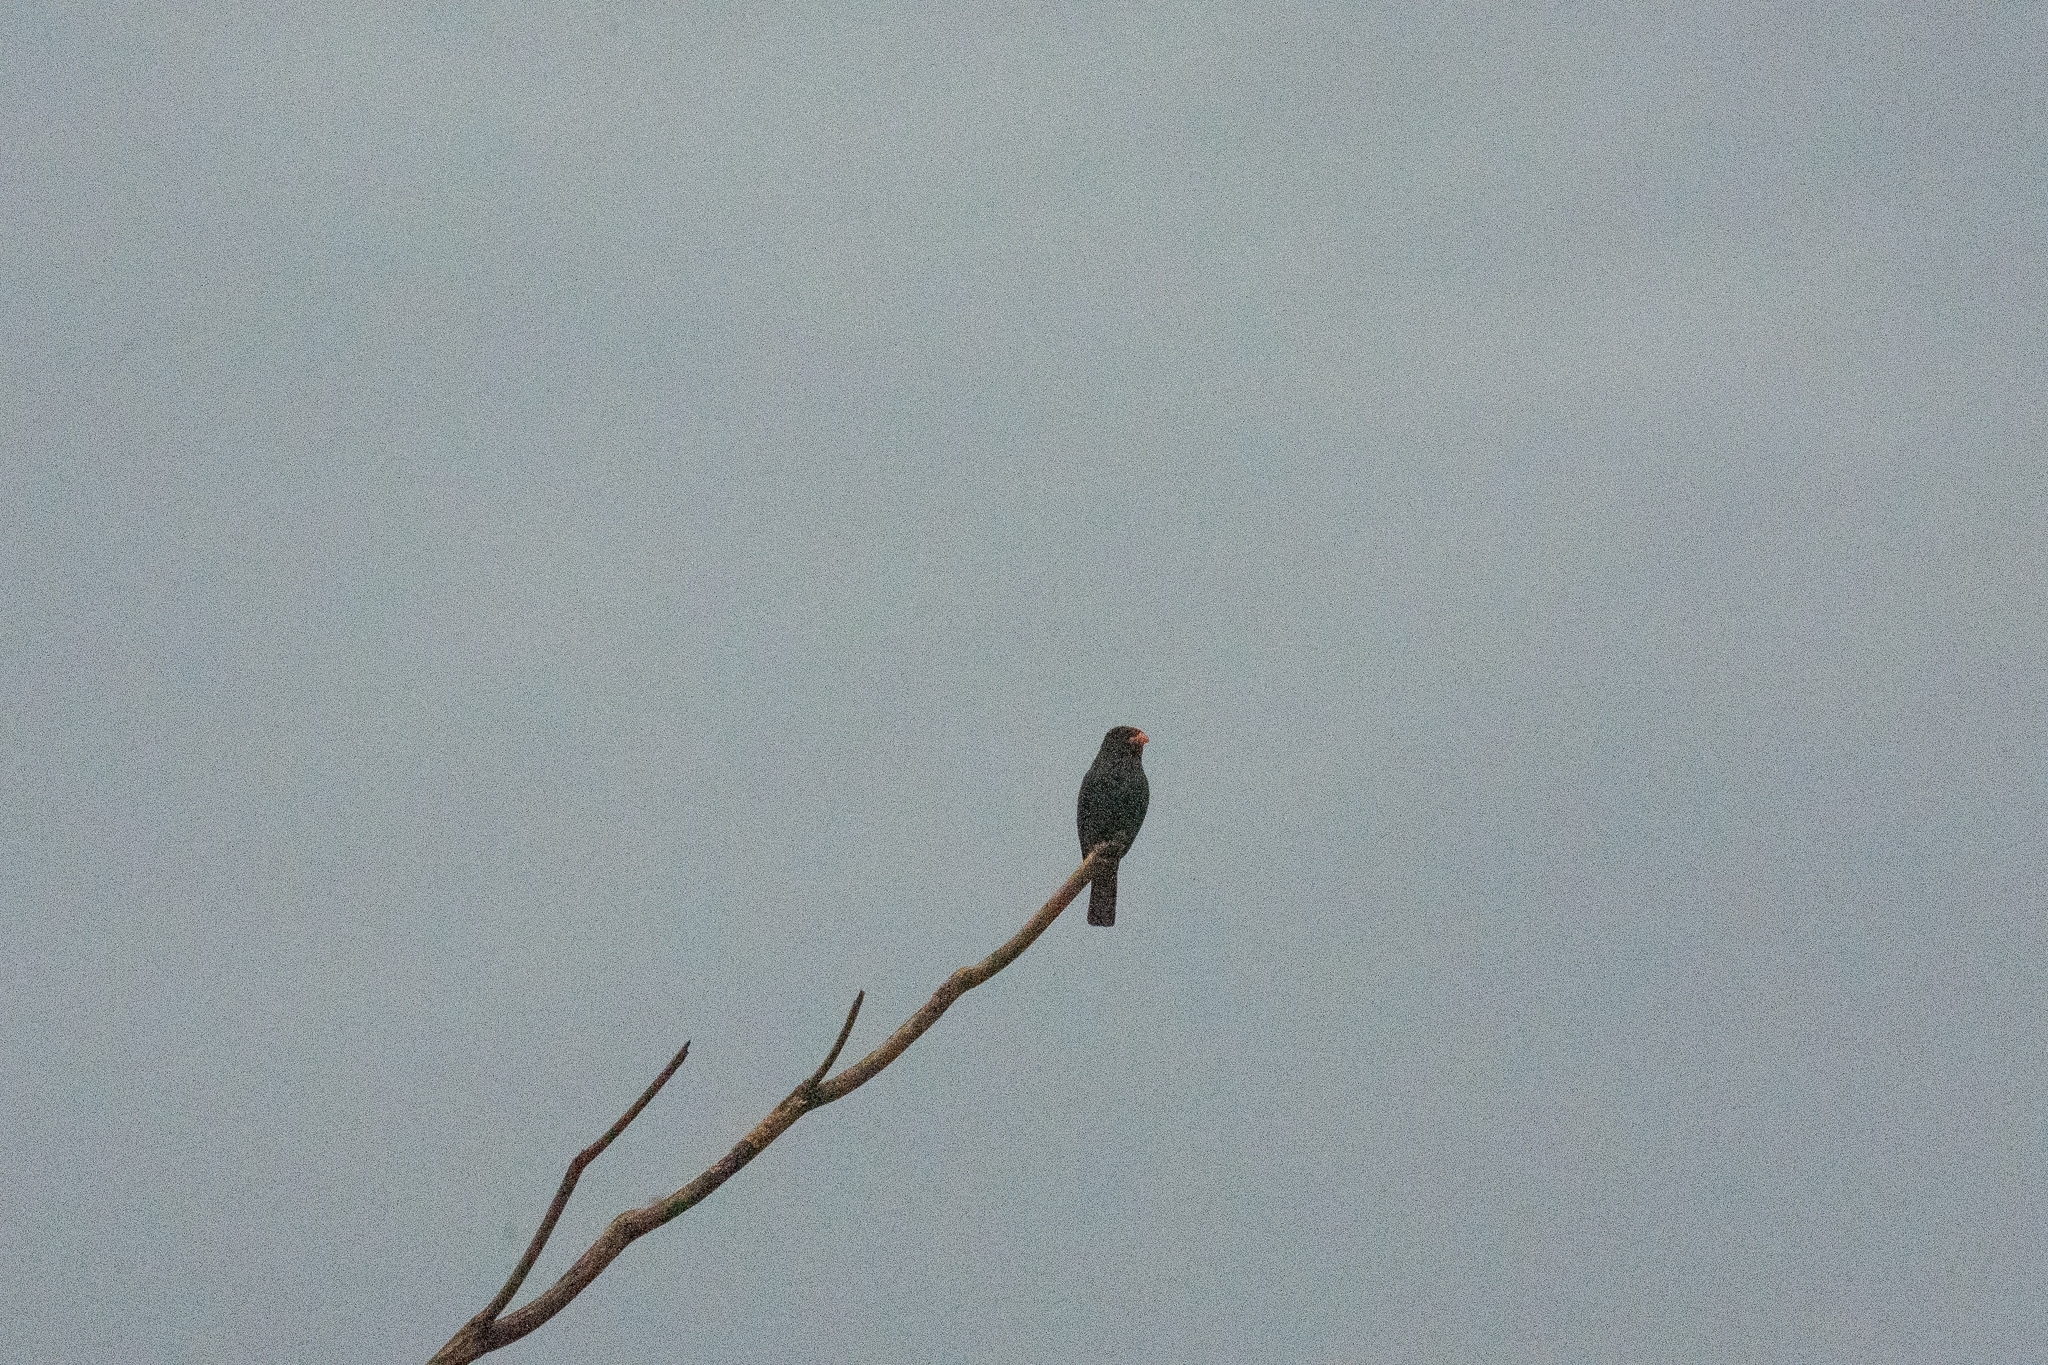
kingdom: Animalia
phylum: Chordata
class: Aves
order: Coraciiformes
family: Coraciidae
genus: Eurystomus
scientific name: Eurystomus orientalis
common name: Oriental dollarbird
